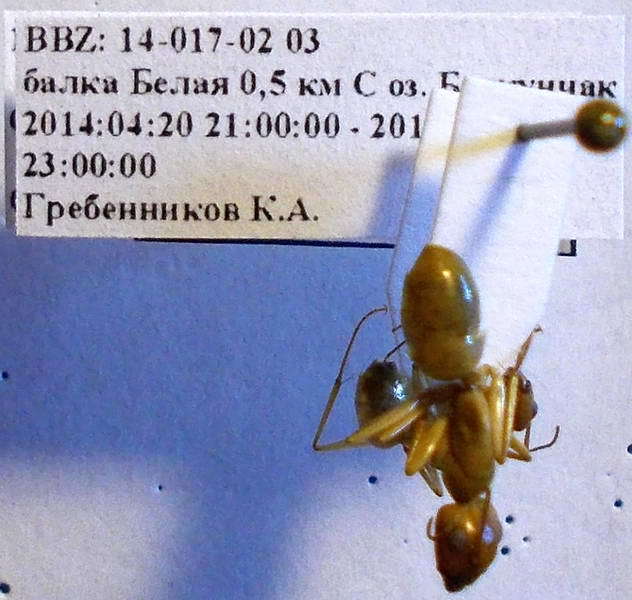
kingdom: Animalia
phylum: Arthropoda
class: Insecta
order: Hymenoptera
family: Formicidae
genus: Camponotus
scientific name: Camponotus turkestanus
